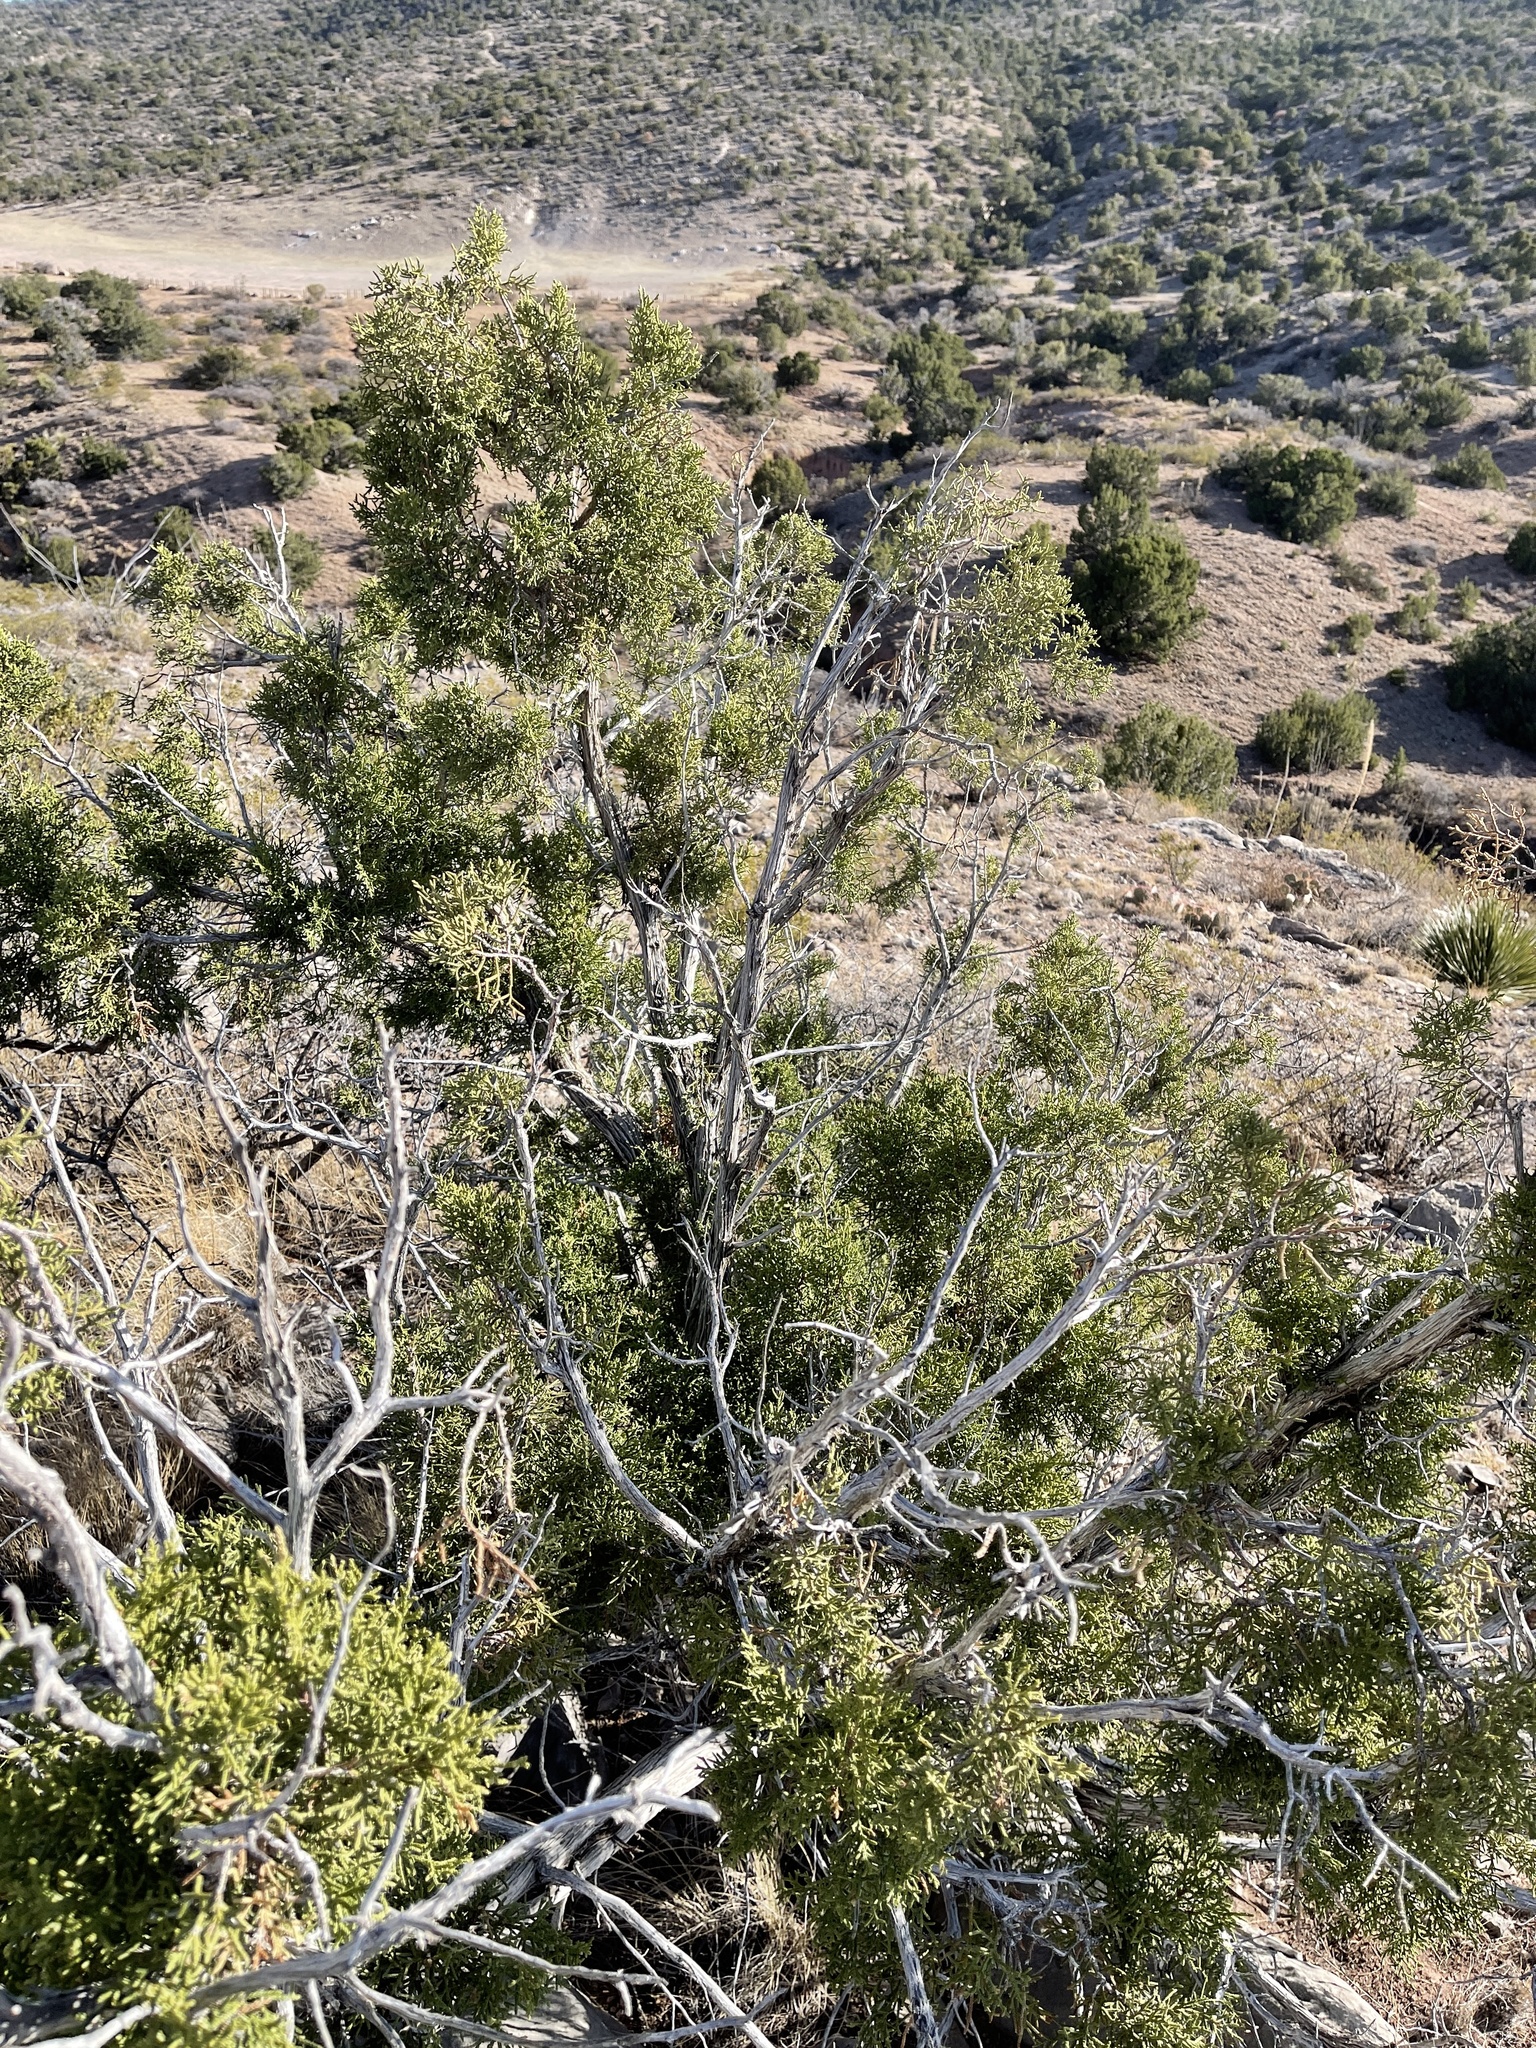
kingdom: Plantae
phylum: Tracheophyta
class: Pinopsida
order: Pinales
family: Cupressaceae
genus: Juniperus
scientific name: Juniperus monosperma
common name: One-seed juniper
